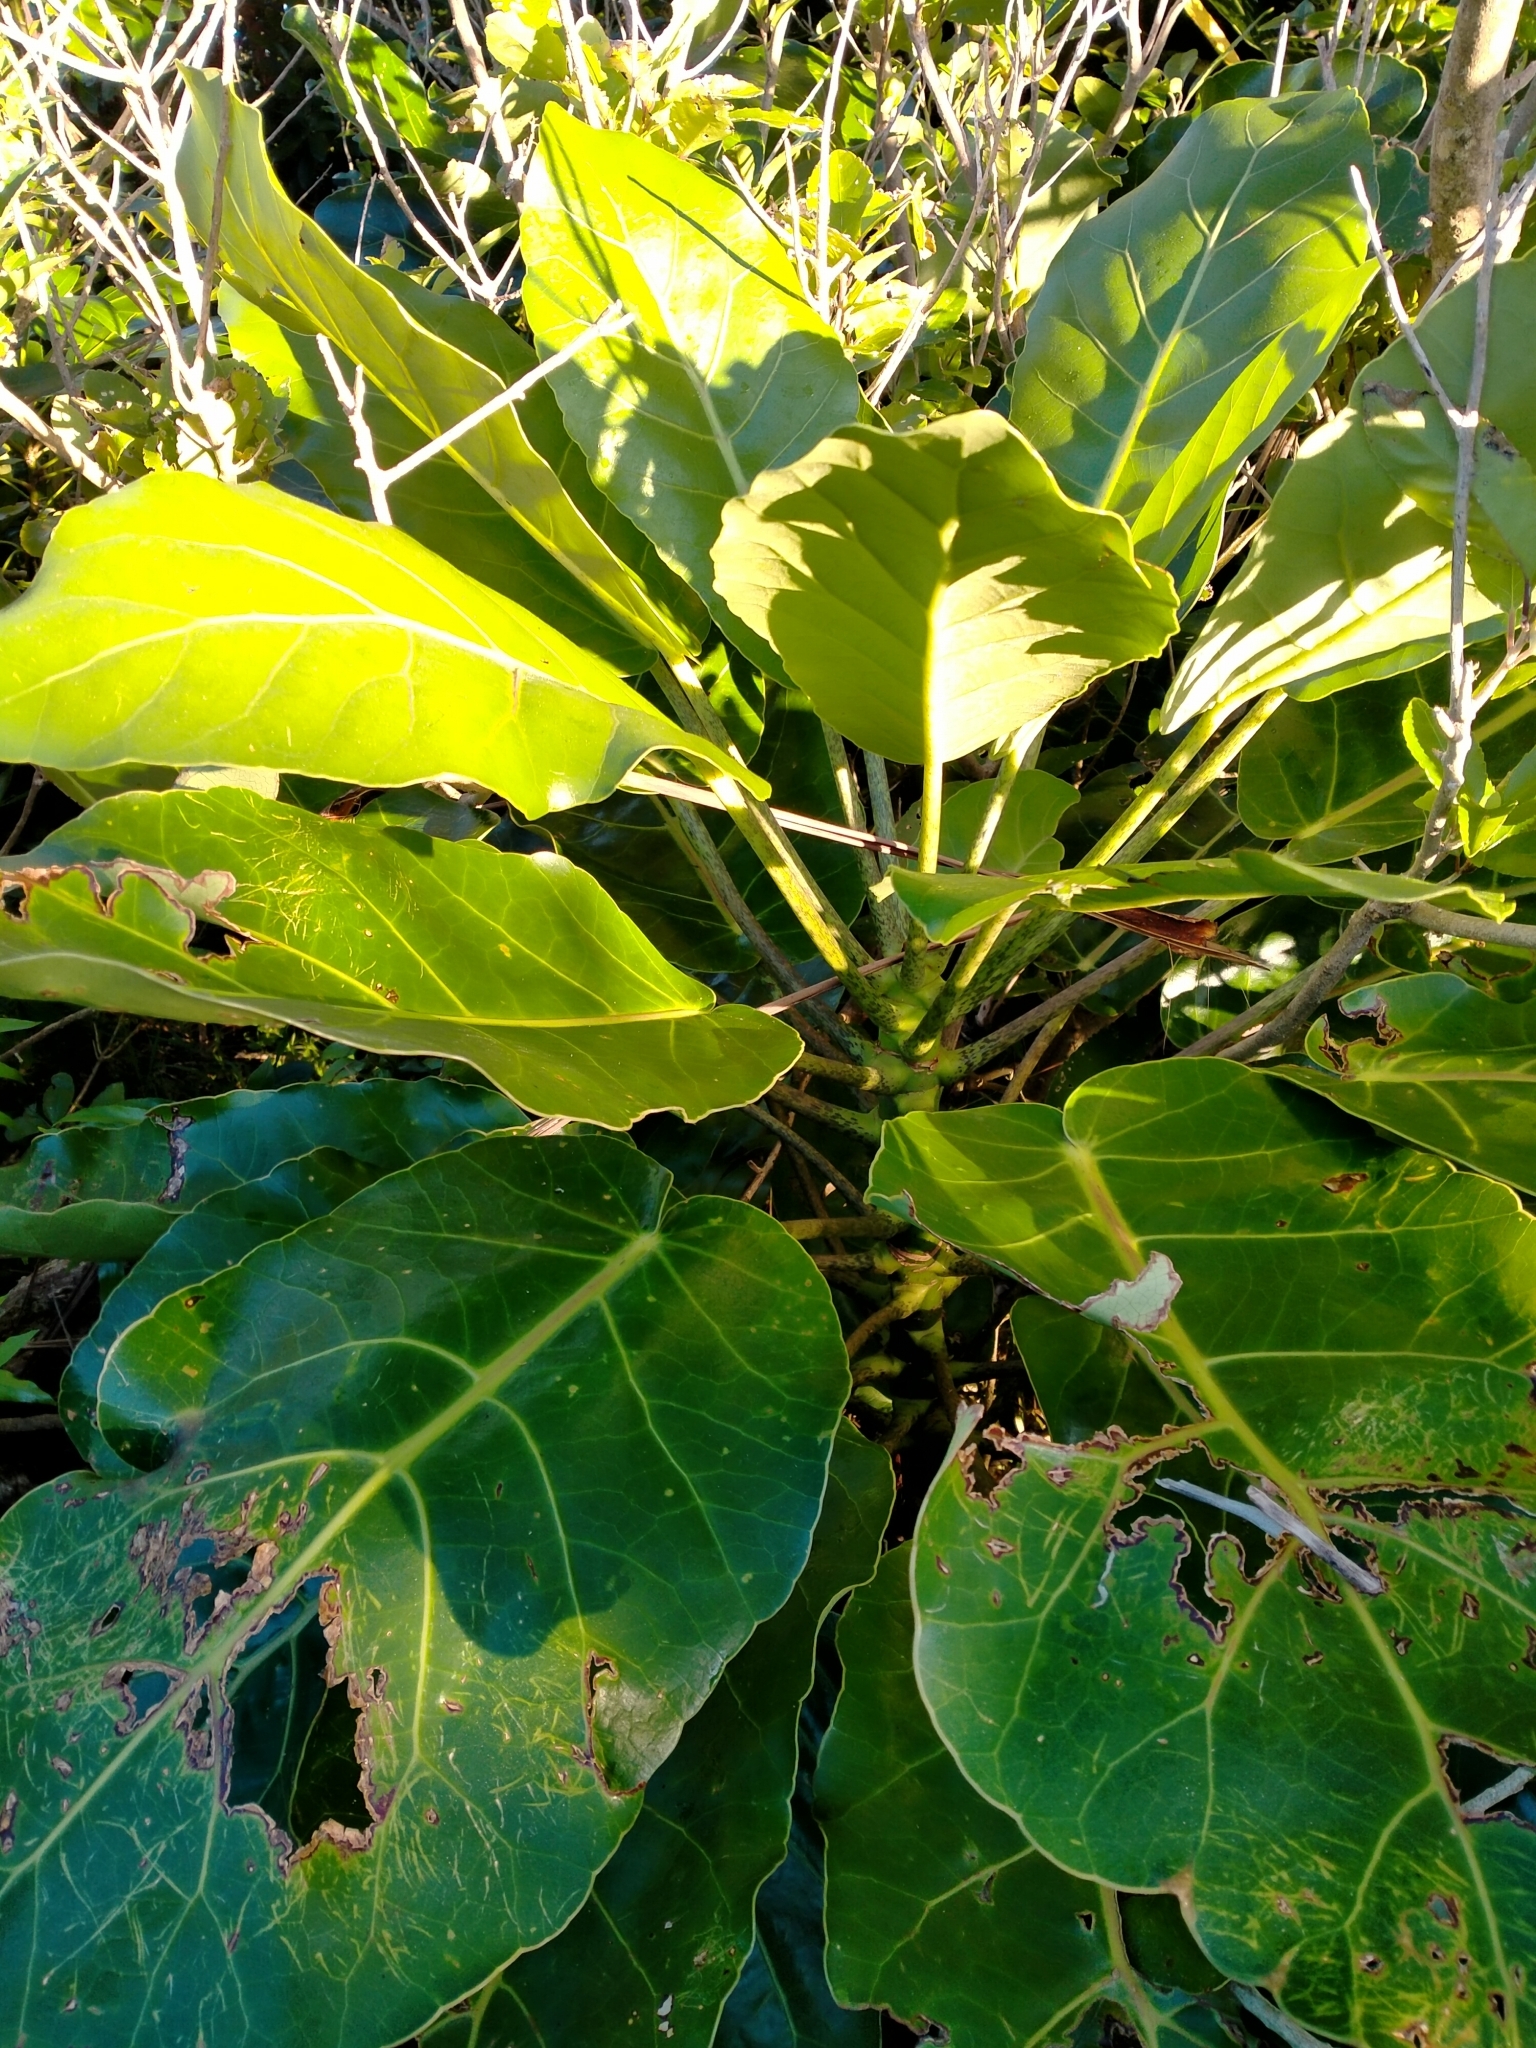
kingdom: Plantae
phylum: Tracheophyta
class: Magnoliopsida
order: Apiales
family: Araliaceae
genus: Meryta
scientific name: Meryta sinclairii
